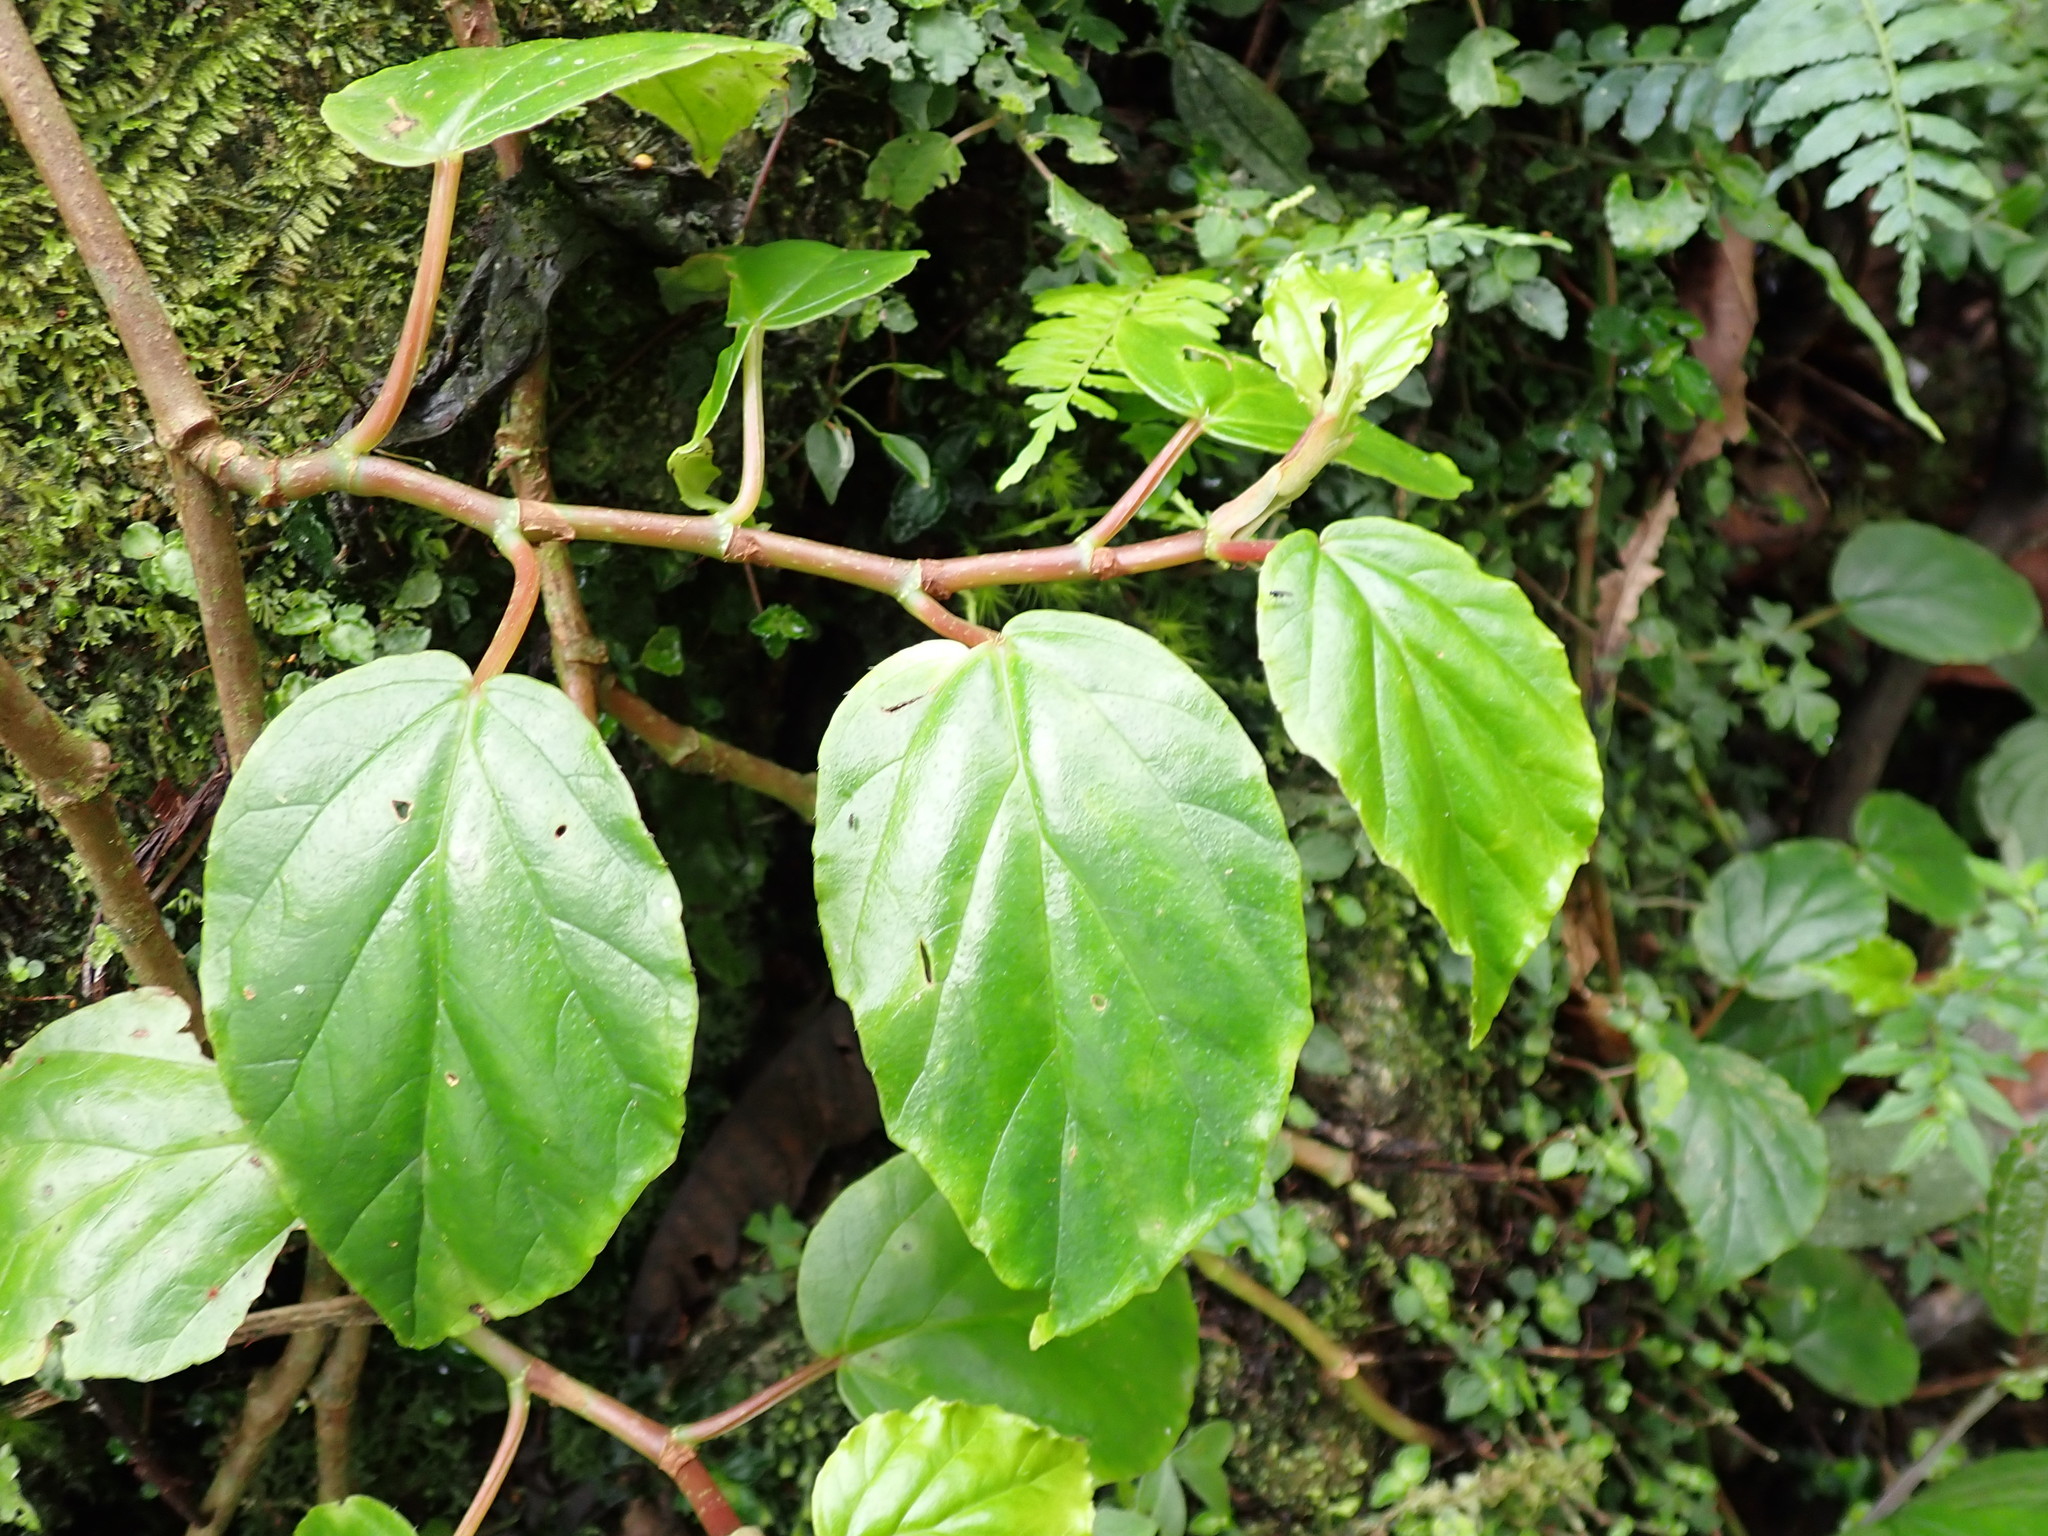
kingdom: Plantae
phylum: Tracheophyta
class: Magnoliopsida
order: Cucurbitales
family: Begoniaceae
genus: Begonia
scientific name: Begonia glabra
